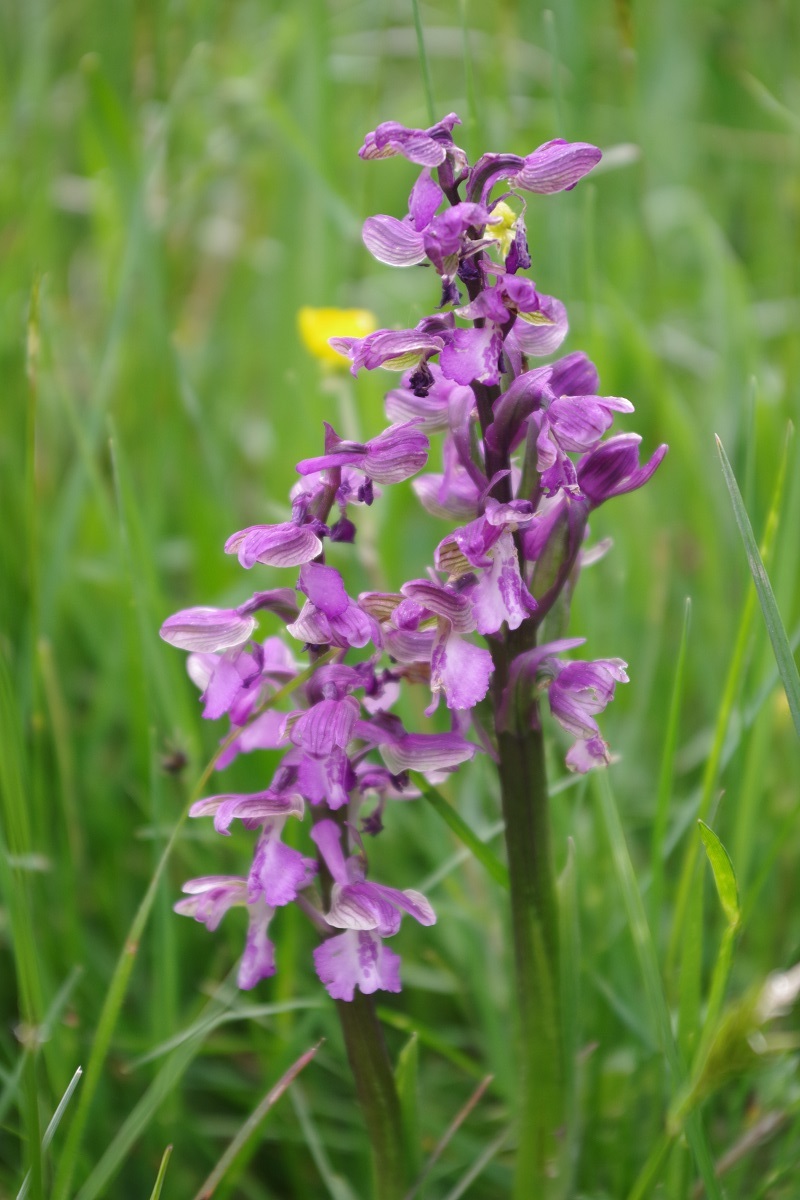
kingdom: Plantae
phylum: Tracheophyta
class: Liliopsida
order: Asparagales
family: Orchidaceae
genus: Anacamptis
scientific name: Anacamptis morio
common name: Green-winged orchid
